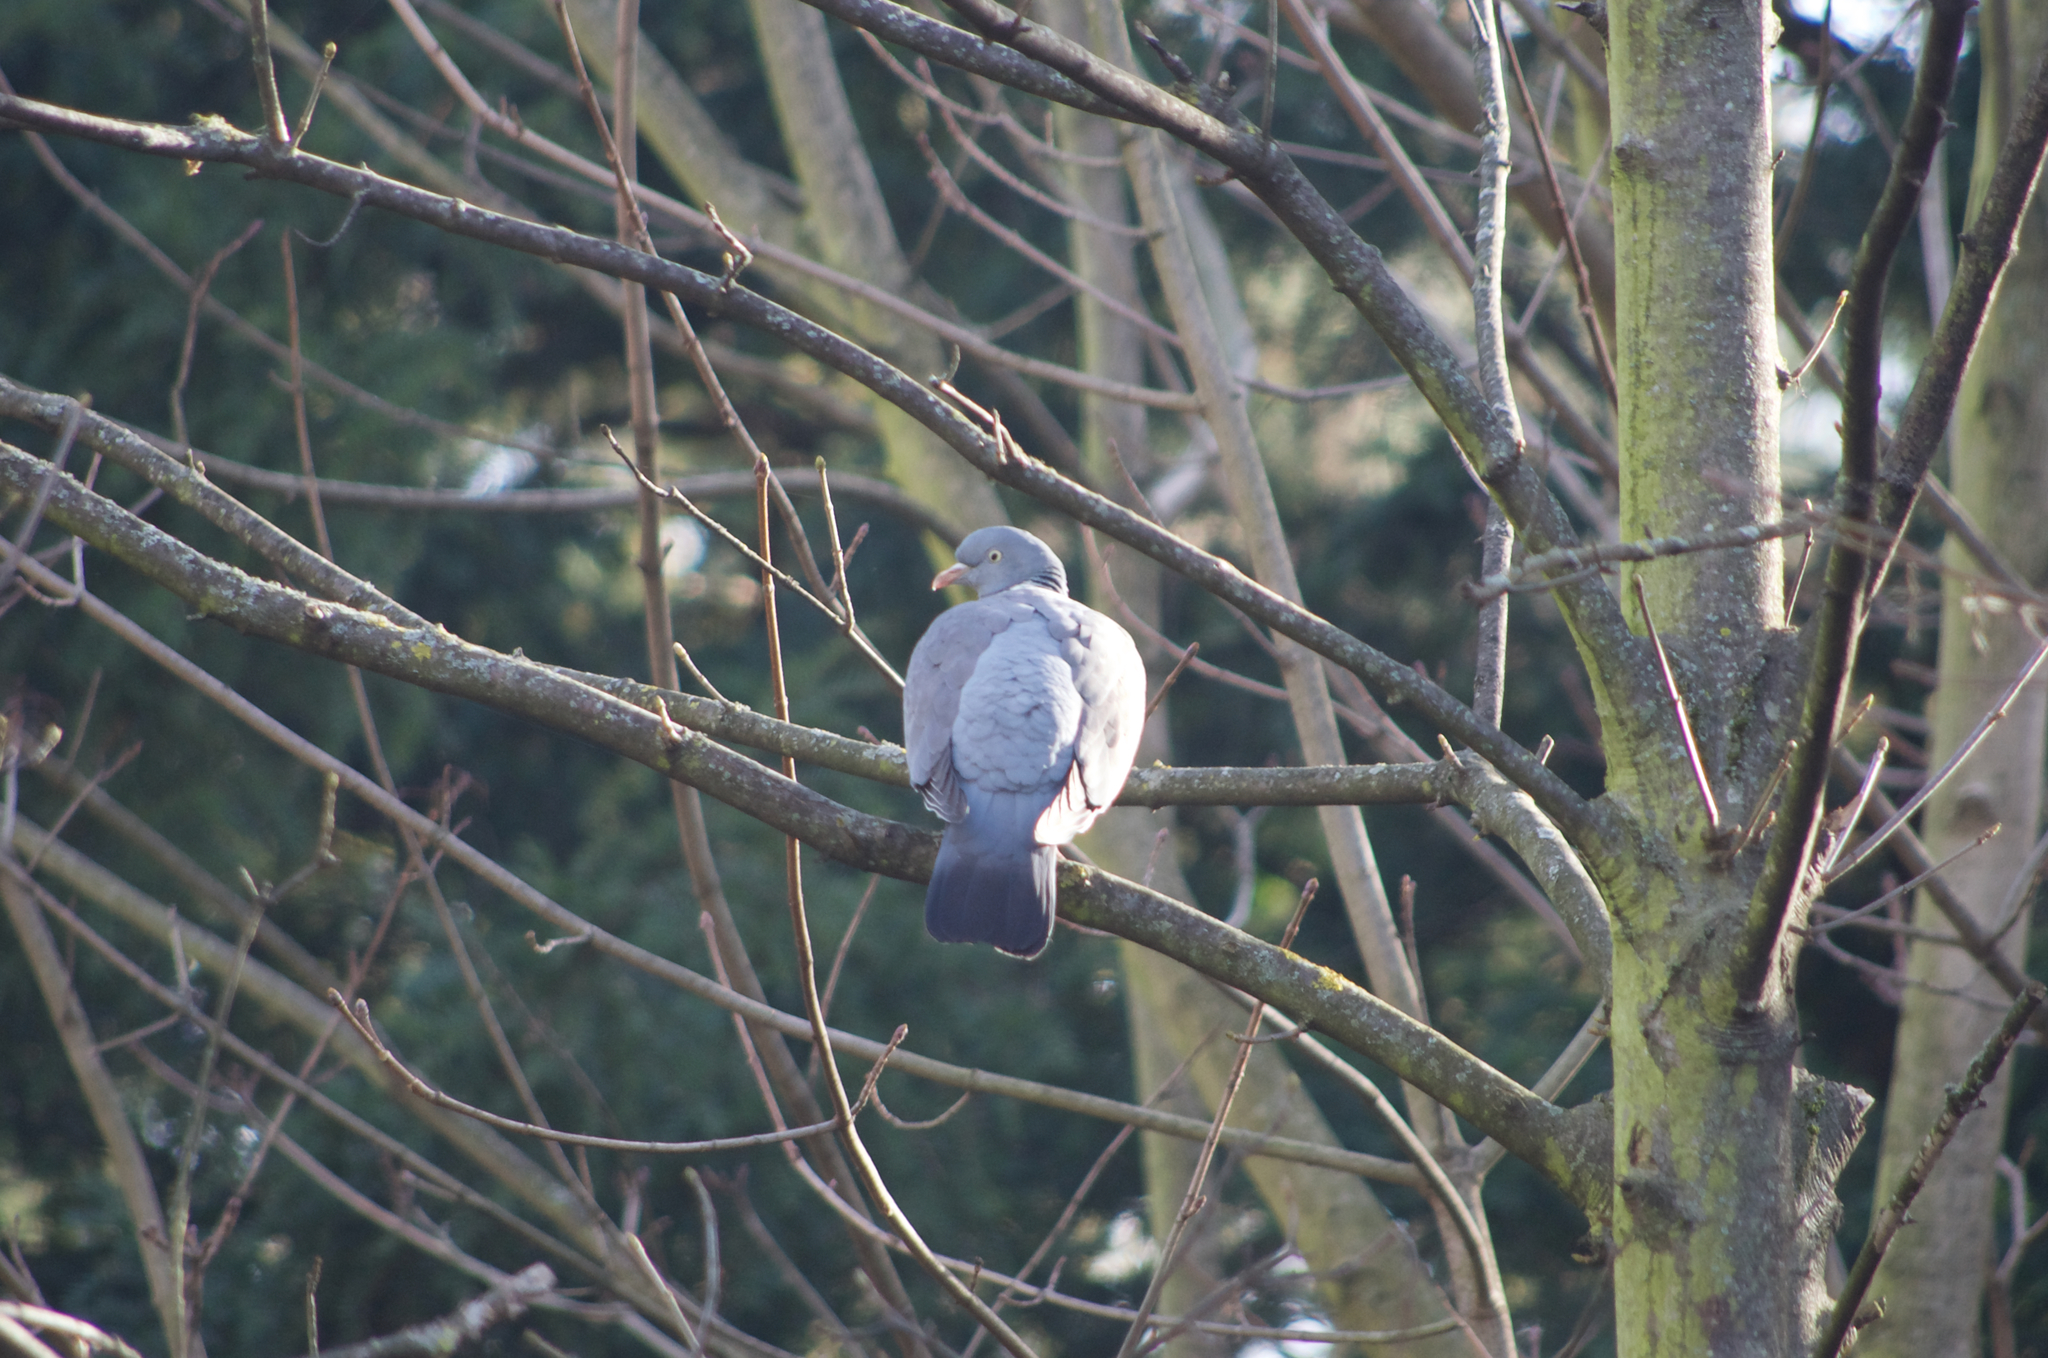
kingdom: Animalia
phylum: Chordata
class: Aves
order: Columbiformes
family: Columbidae
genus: Columba
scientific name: Columba palumbus
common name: Common wood pigeon
